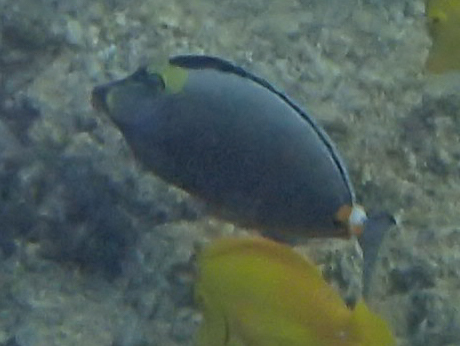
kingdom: Animalia
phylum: Chordata
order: Perciformes
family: Acanthuridae
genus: Naso
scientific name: Naso lituratus
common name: Orangespine unicornfish
